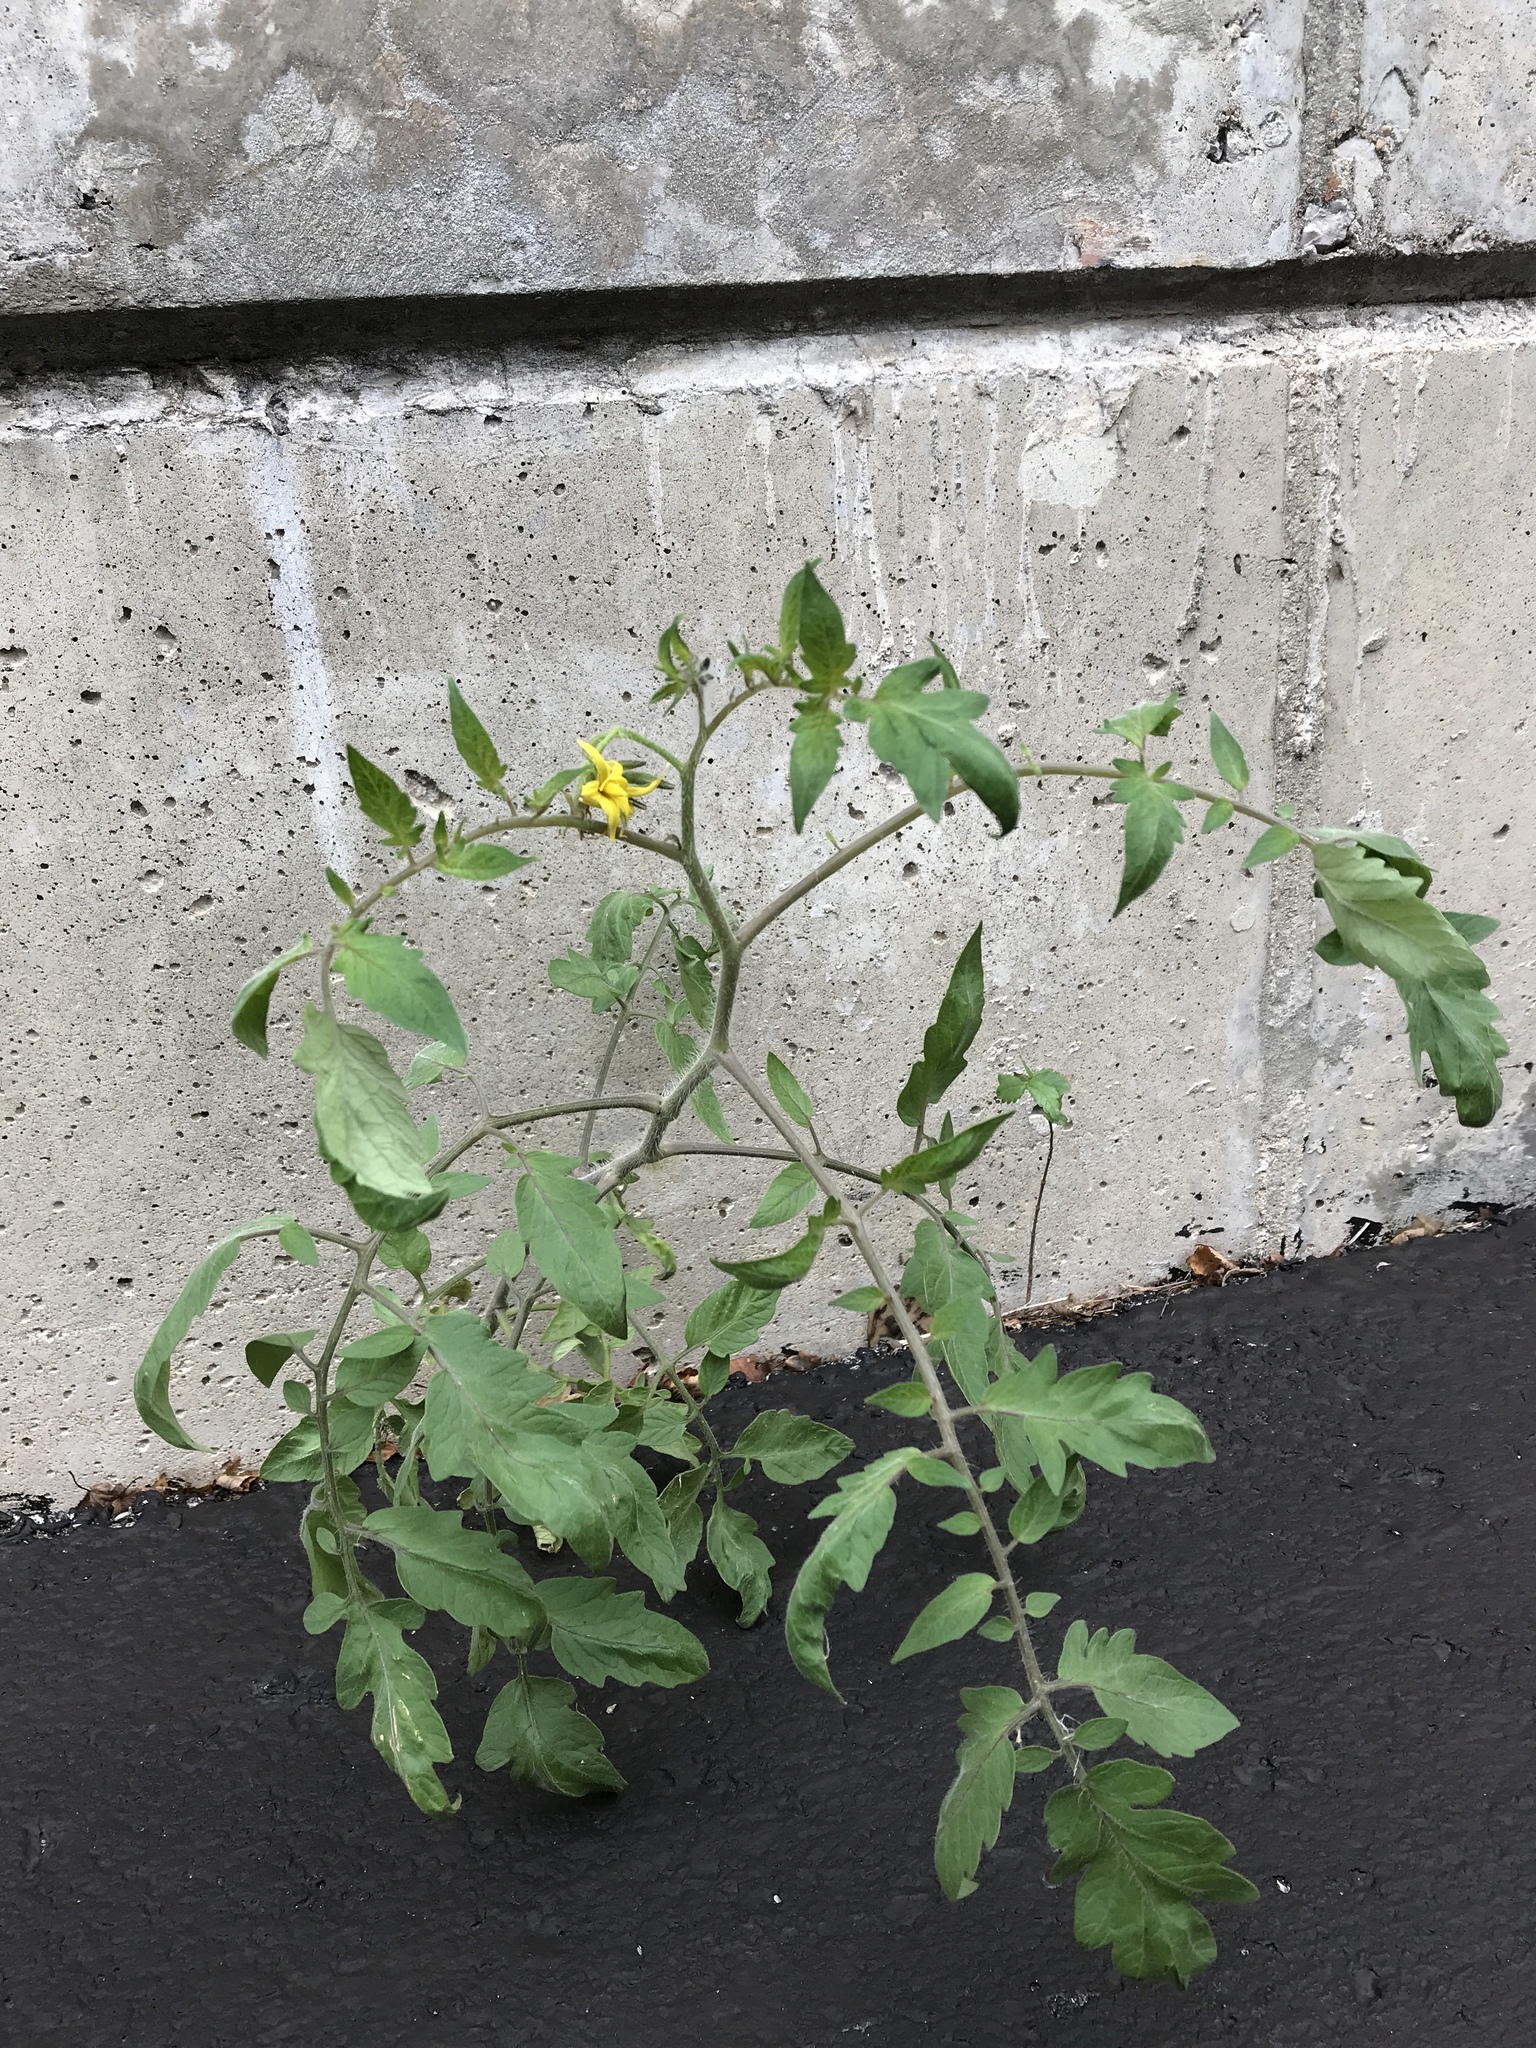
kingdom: Plantae
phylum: Tracheophyta
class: Magnoliopsida
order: Solanales
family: Solanaceae
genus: Solanum
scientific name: Solanum lycopersicum
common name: Garden tomato
